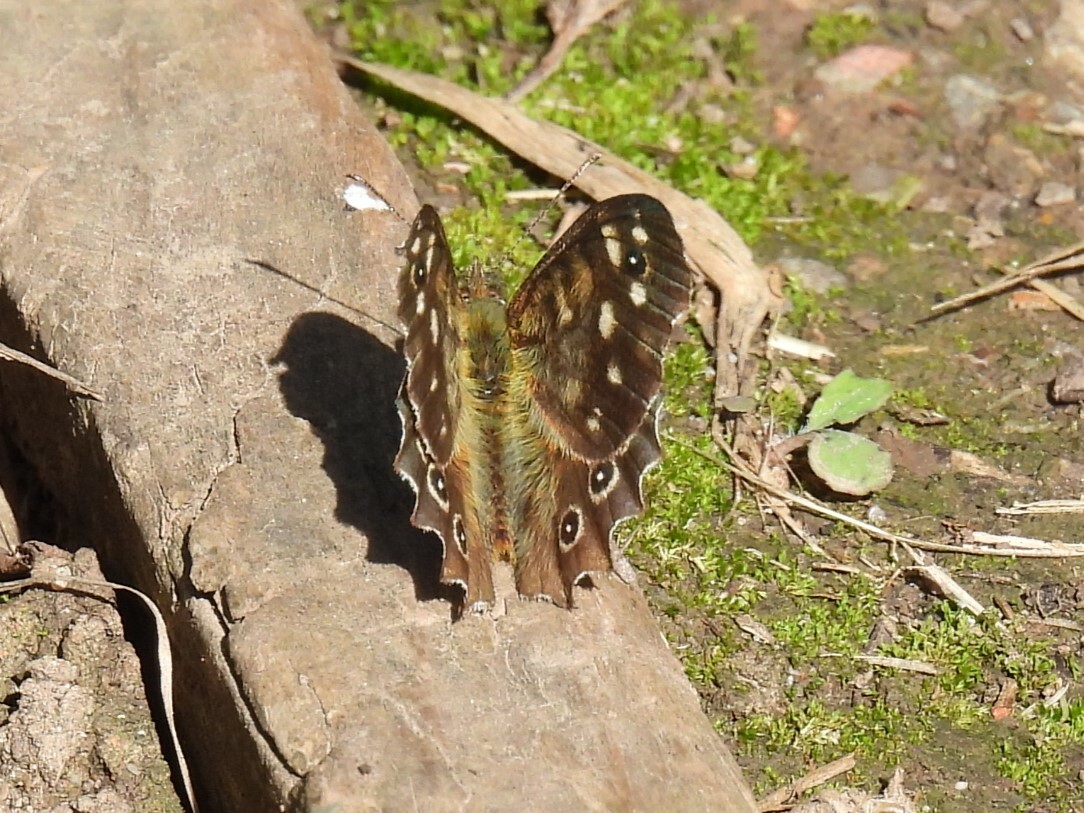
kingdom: Animalia
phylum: Arthropoda
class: Insecta
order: Lepidoptera
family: Nymphalidae
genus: Pararge
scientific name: Pararge aegeria
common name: Speckled wood
